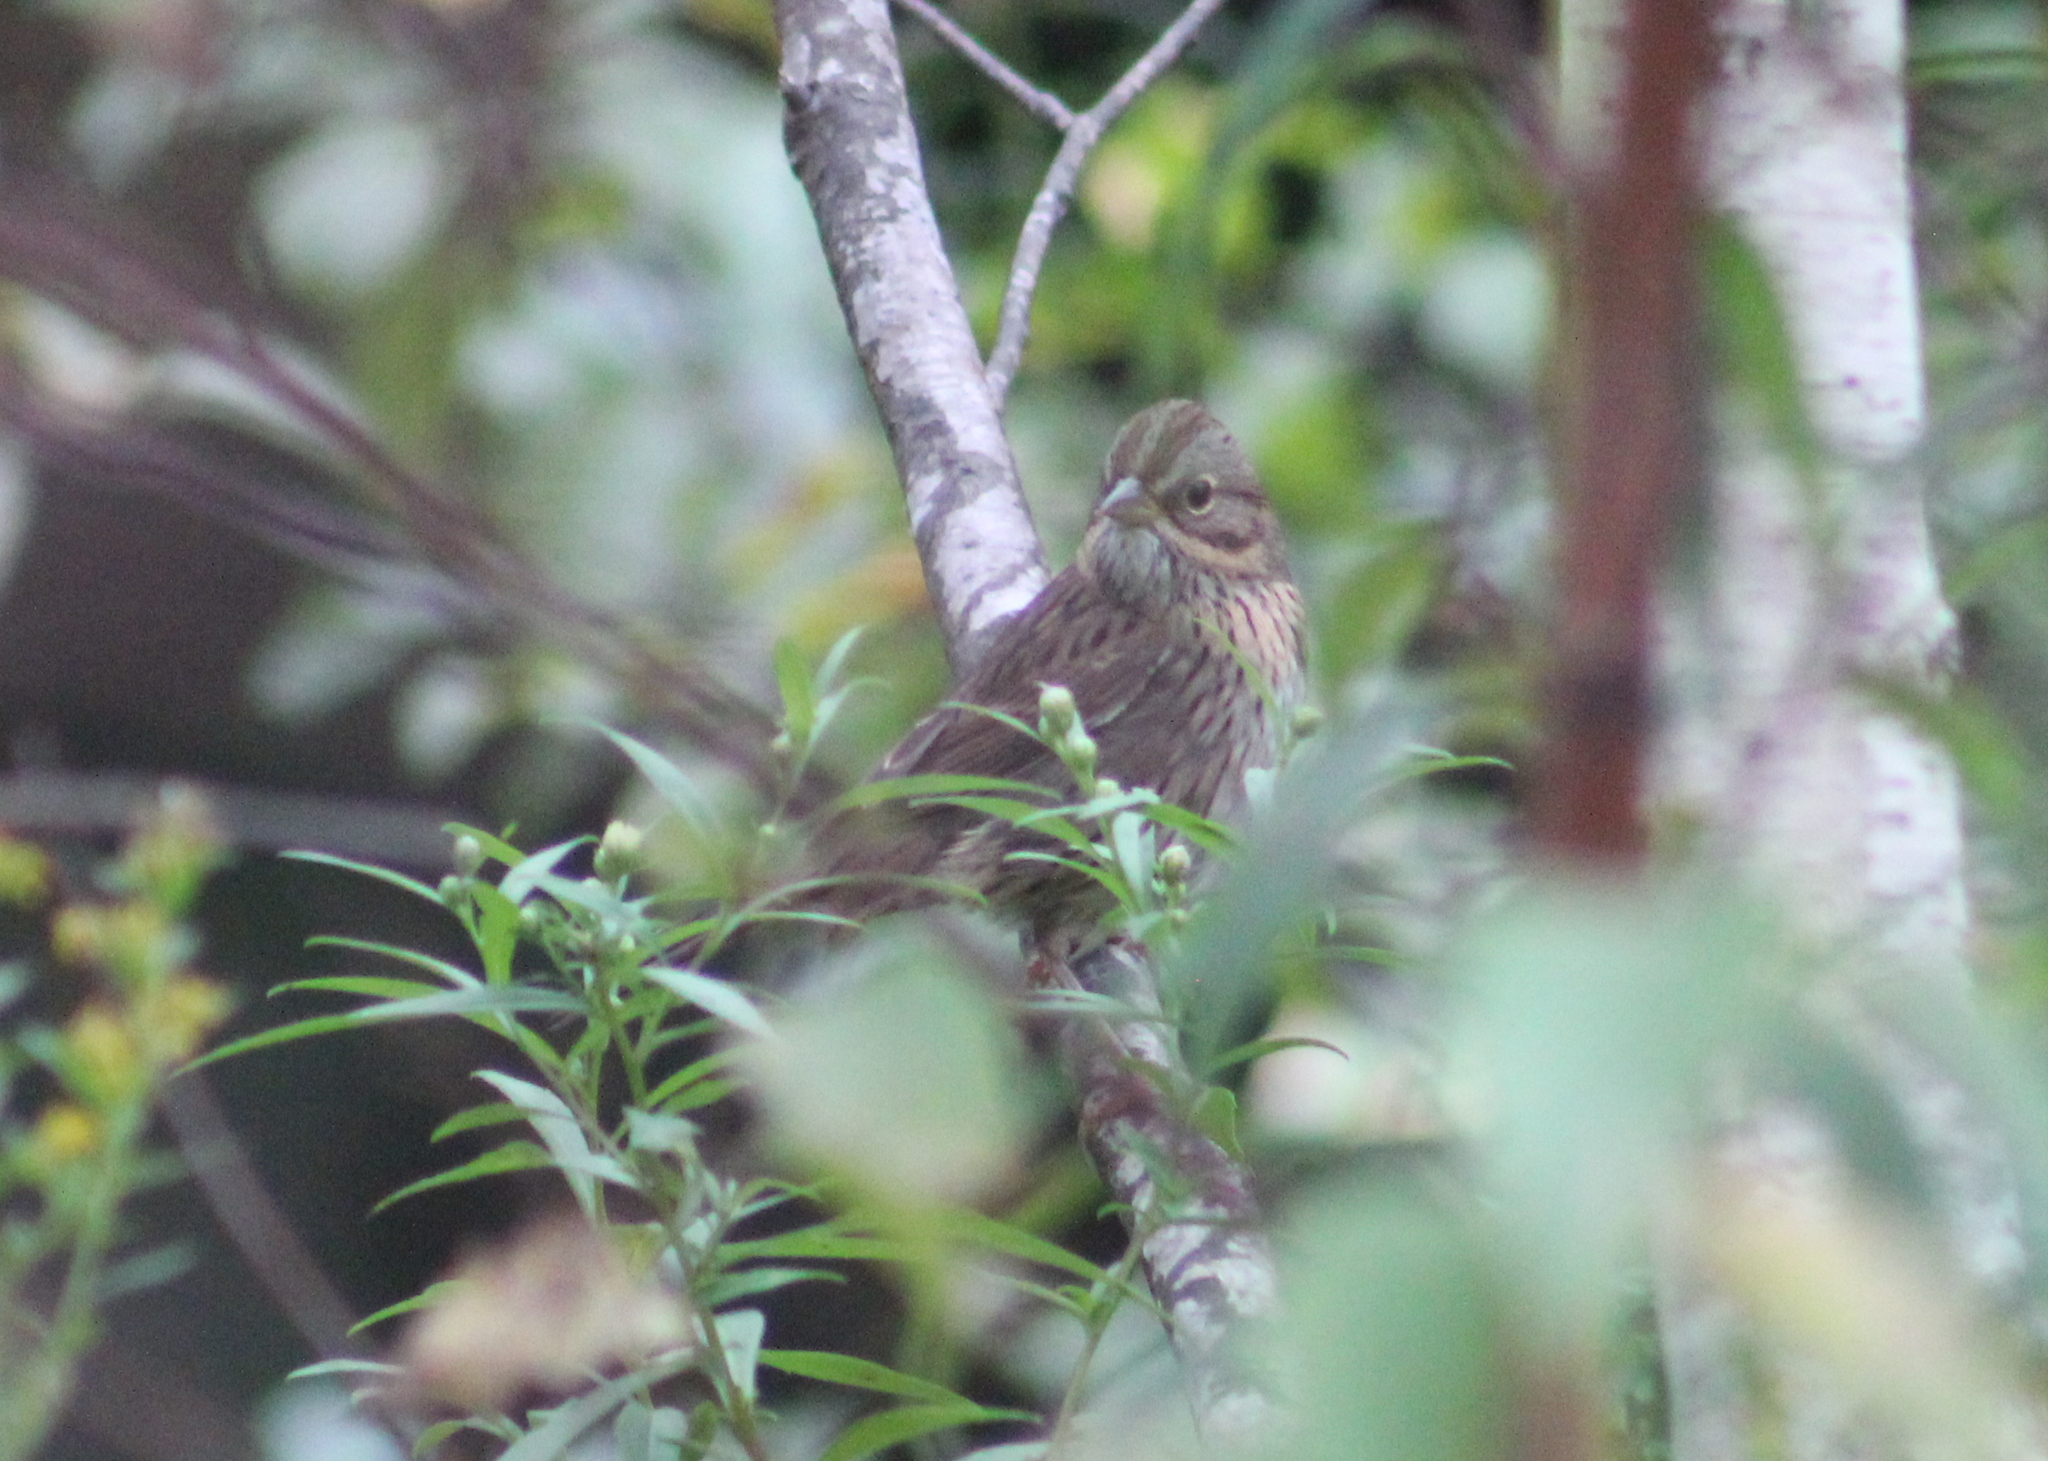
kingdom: Animalia
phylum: Chordata
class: Aves
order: Passeriformes
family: Passerellidae
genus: Melospiza
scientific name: Melospiza lincolnii
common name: Lincoln's sparrow
